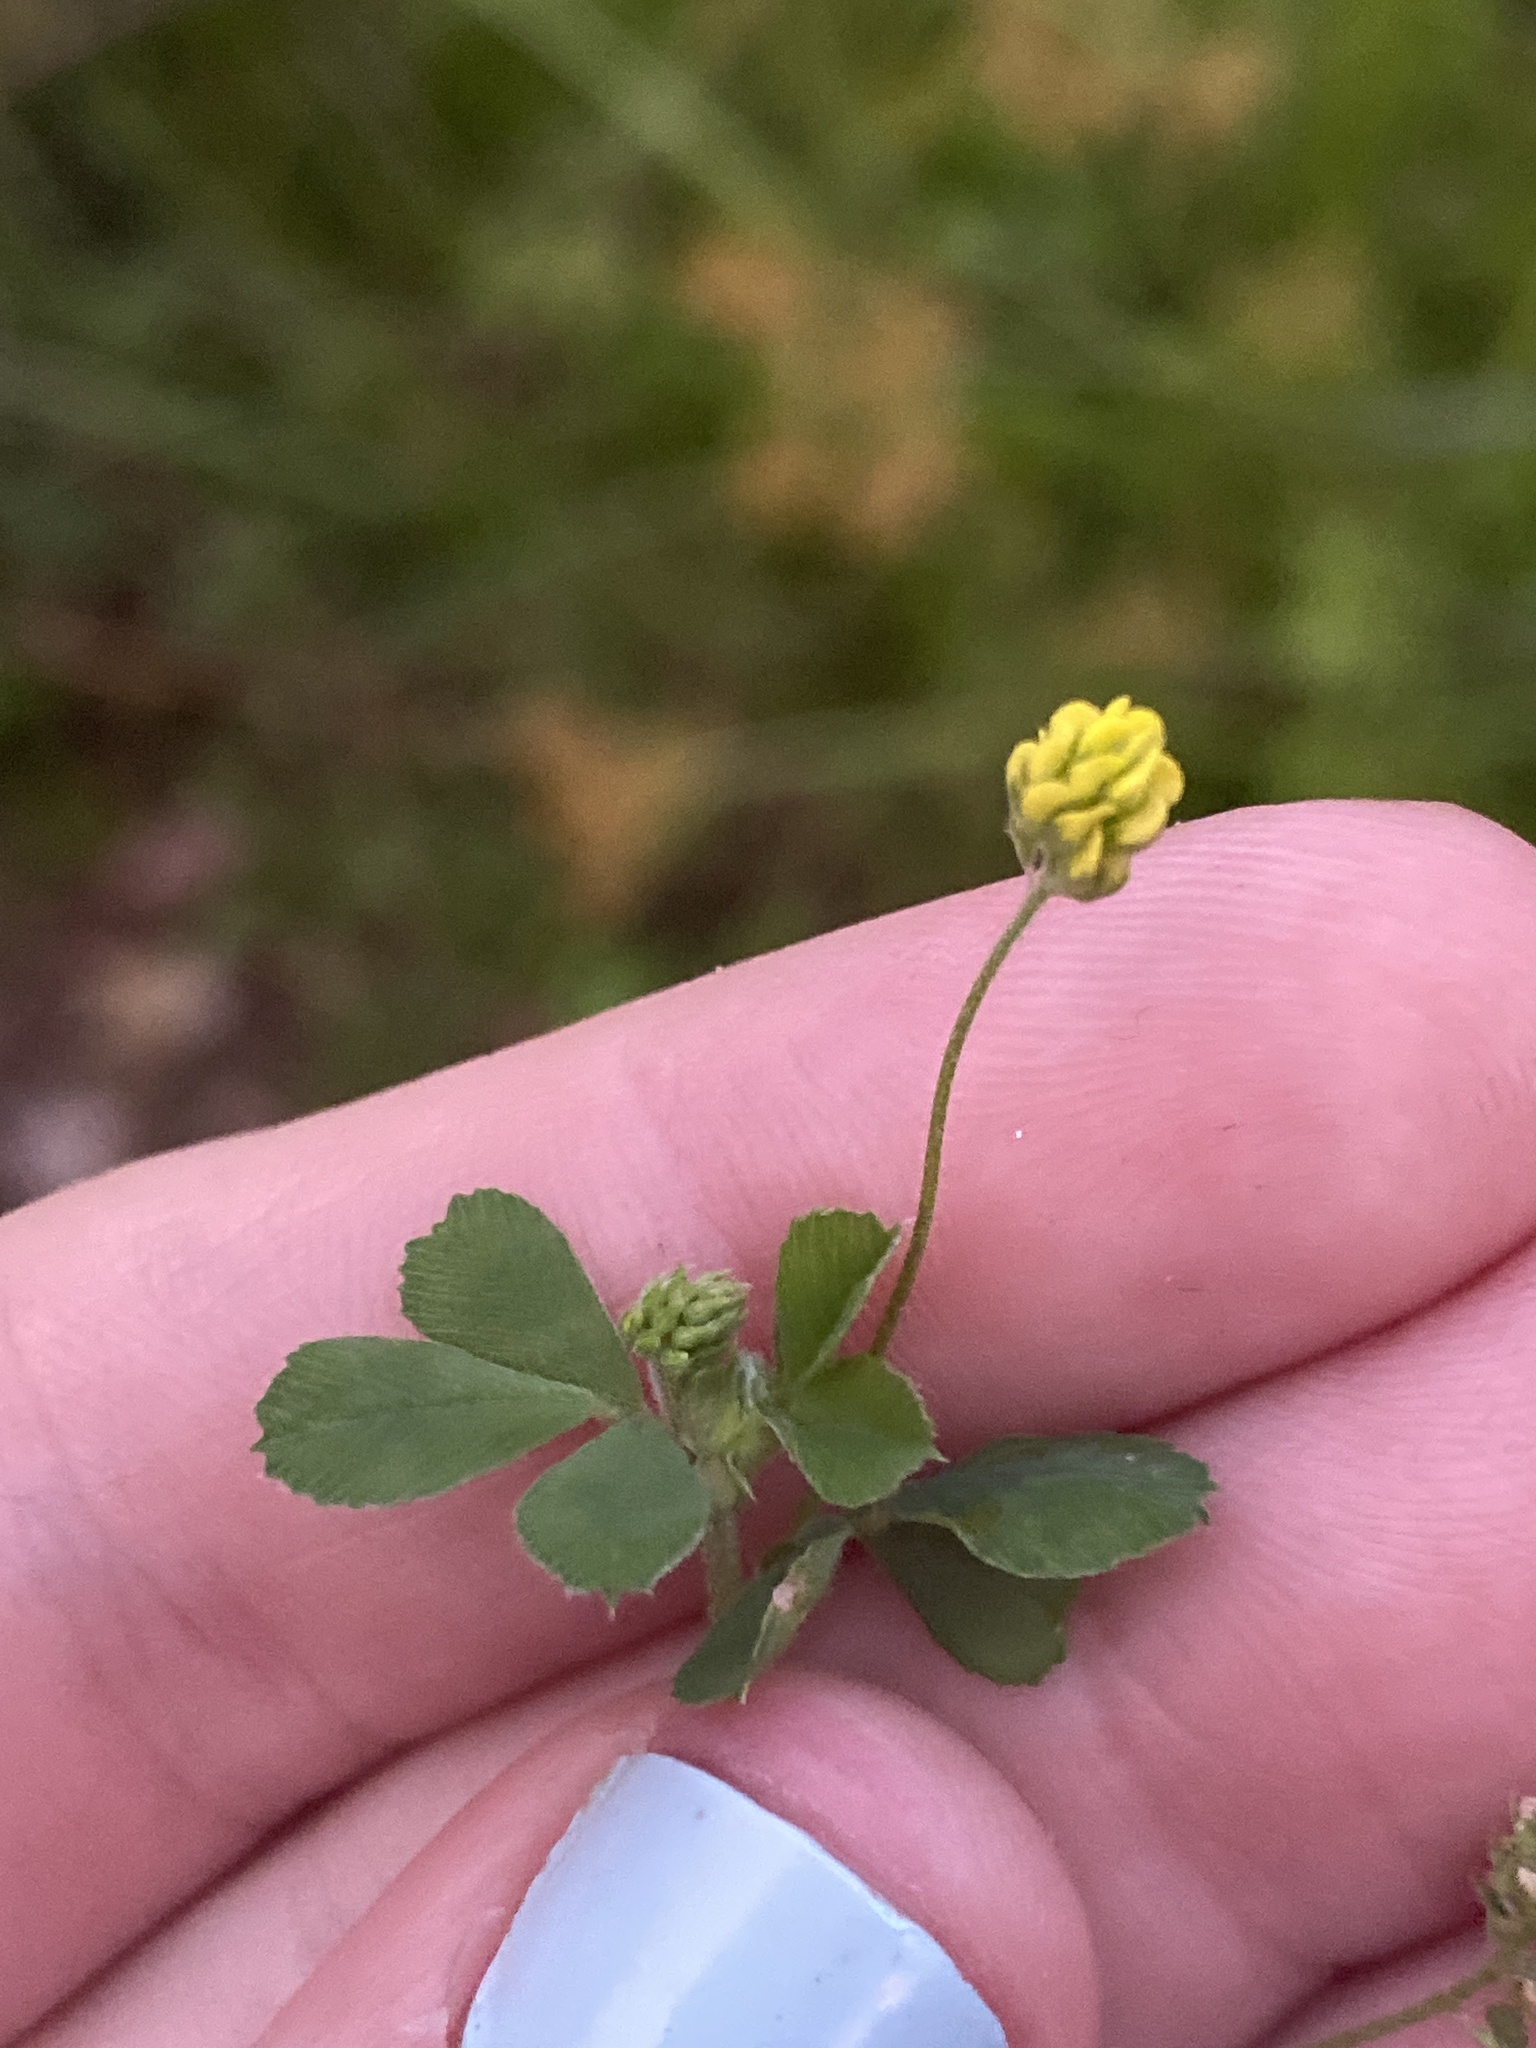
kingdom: Plantae
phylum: Tracheophyta
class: Magnoliopsida
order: Fabales
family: Fabaceae
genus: Medicago
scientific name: Medicago lupulina
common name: Black medick
